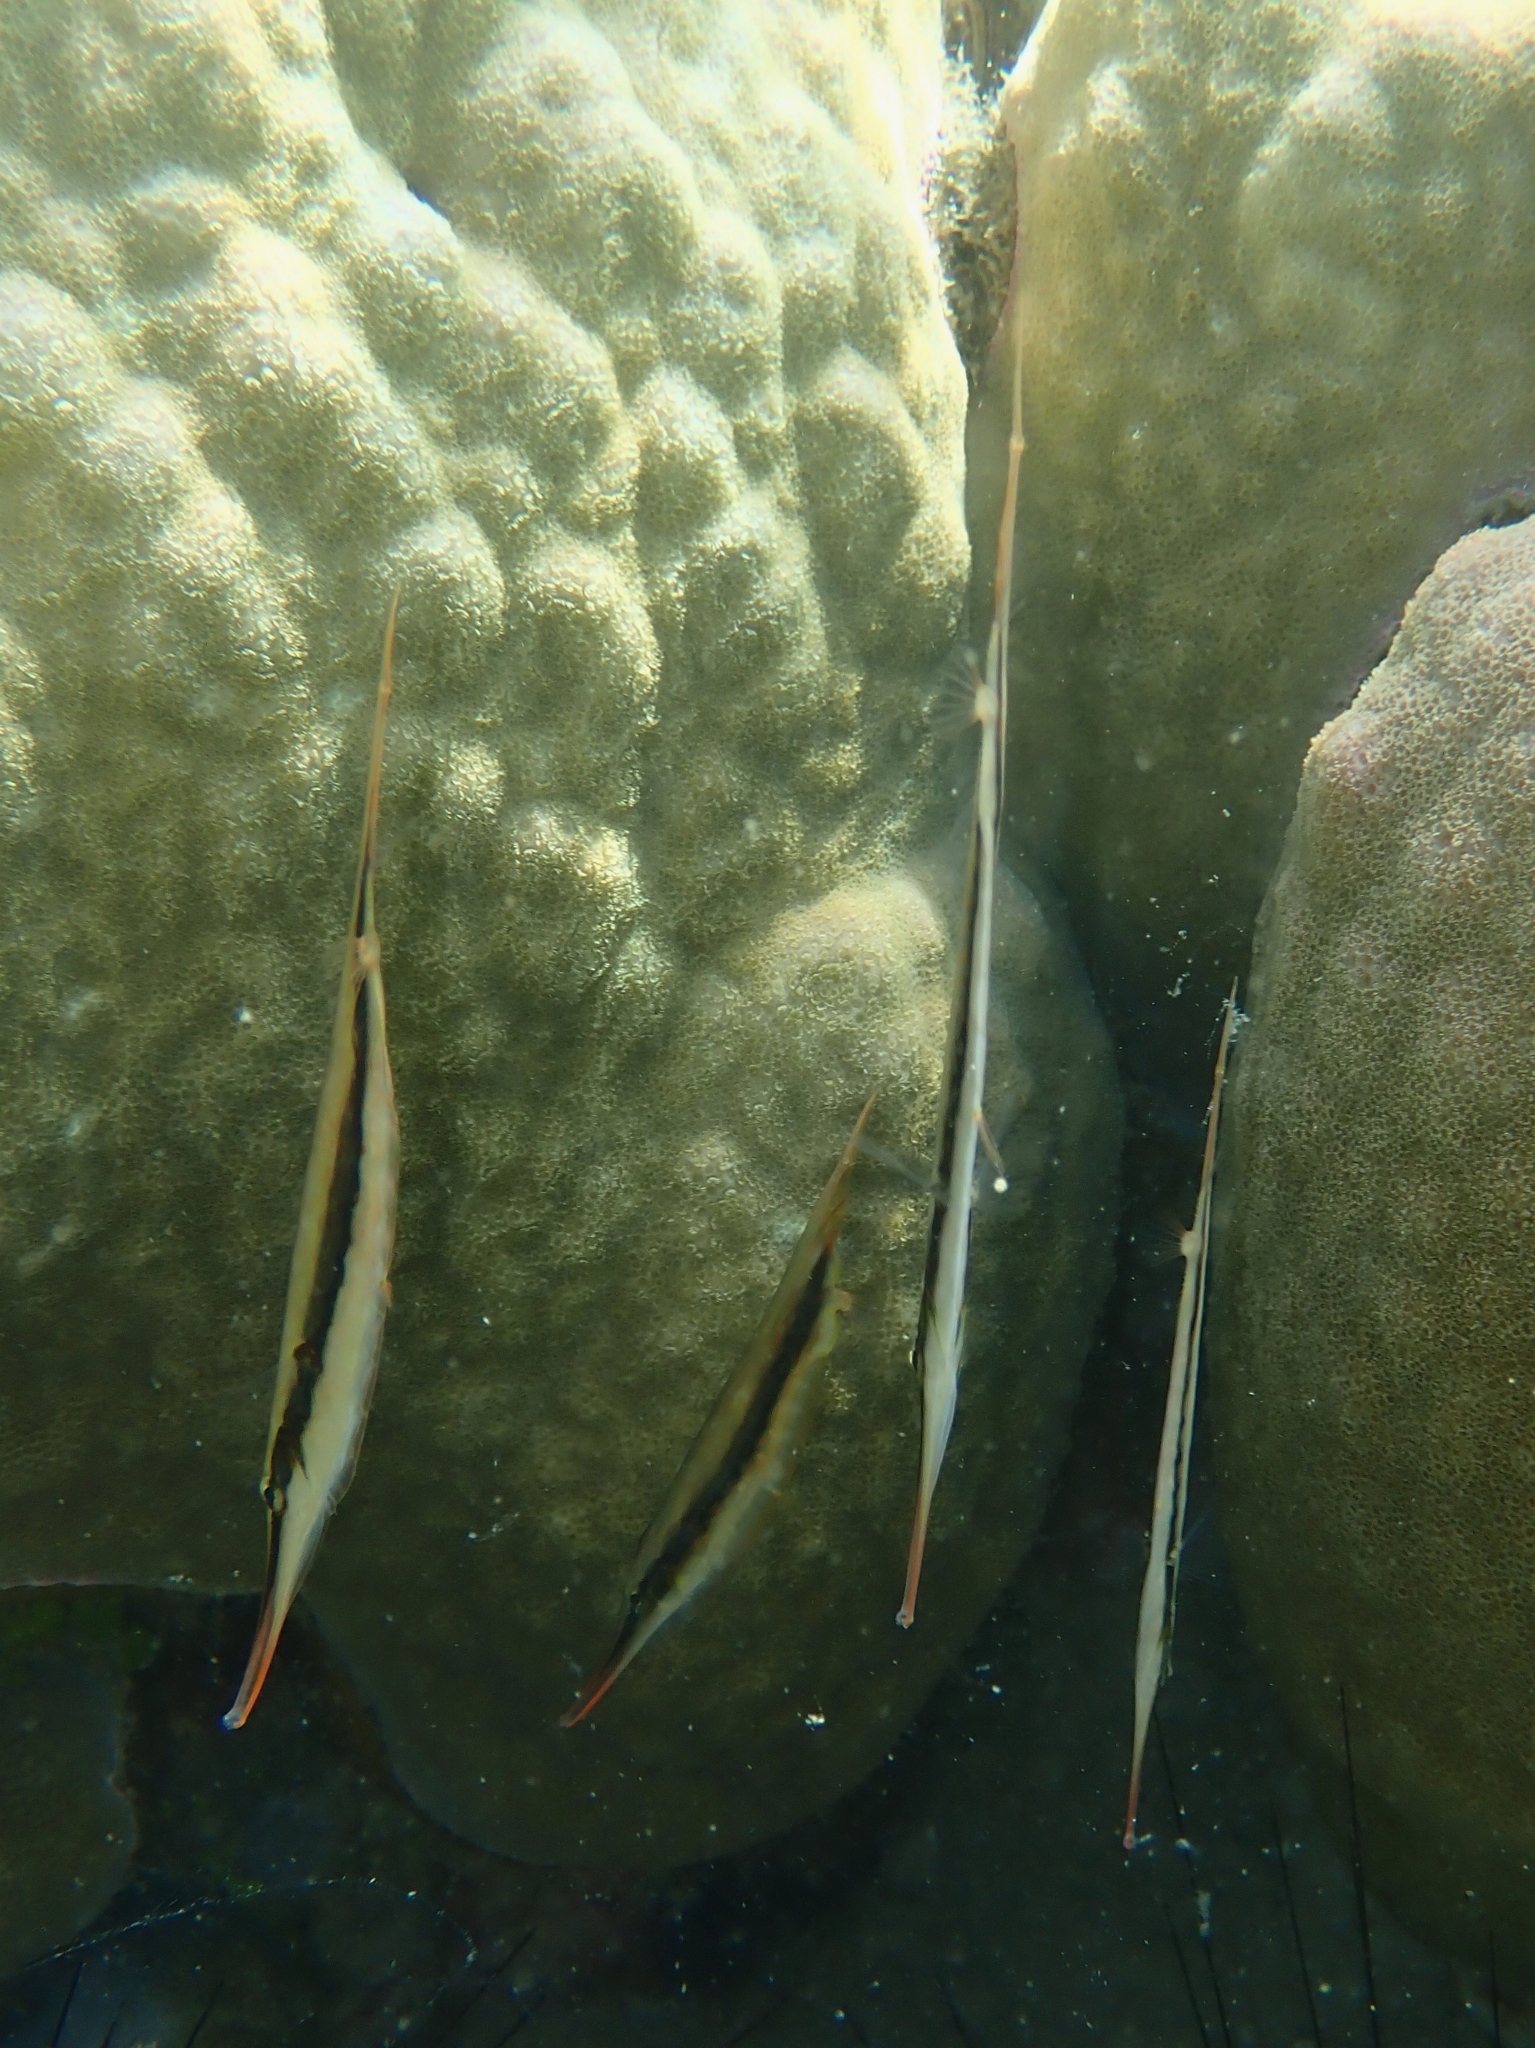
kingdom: Animalia
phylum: Chordata
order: Syngnathiformes
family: Centriscidae
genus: Aeoliscus
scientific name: Aeoliscus strigatus
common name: Canif
